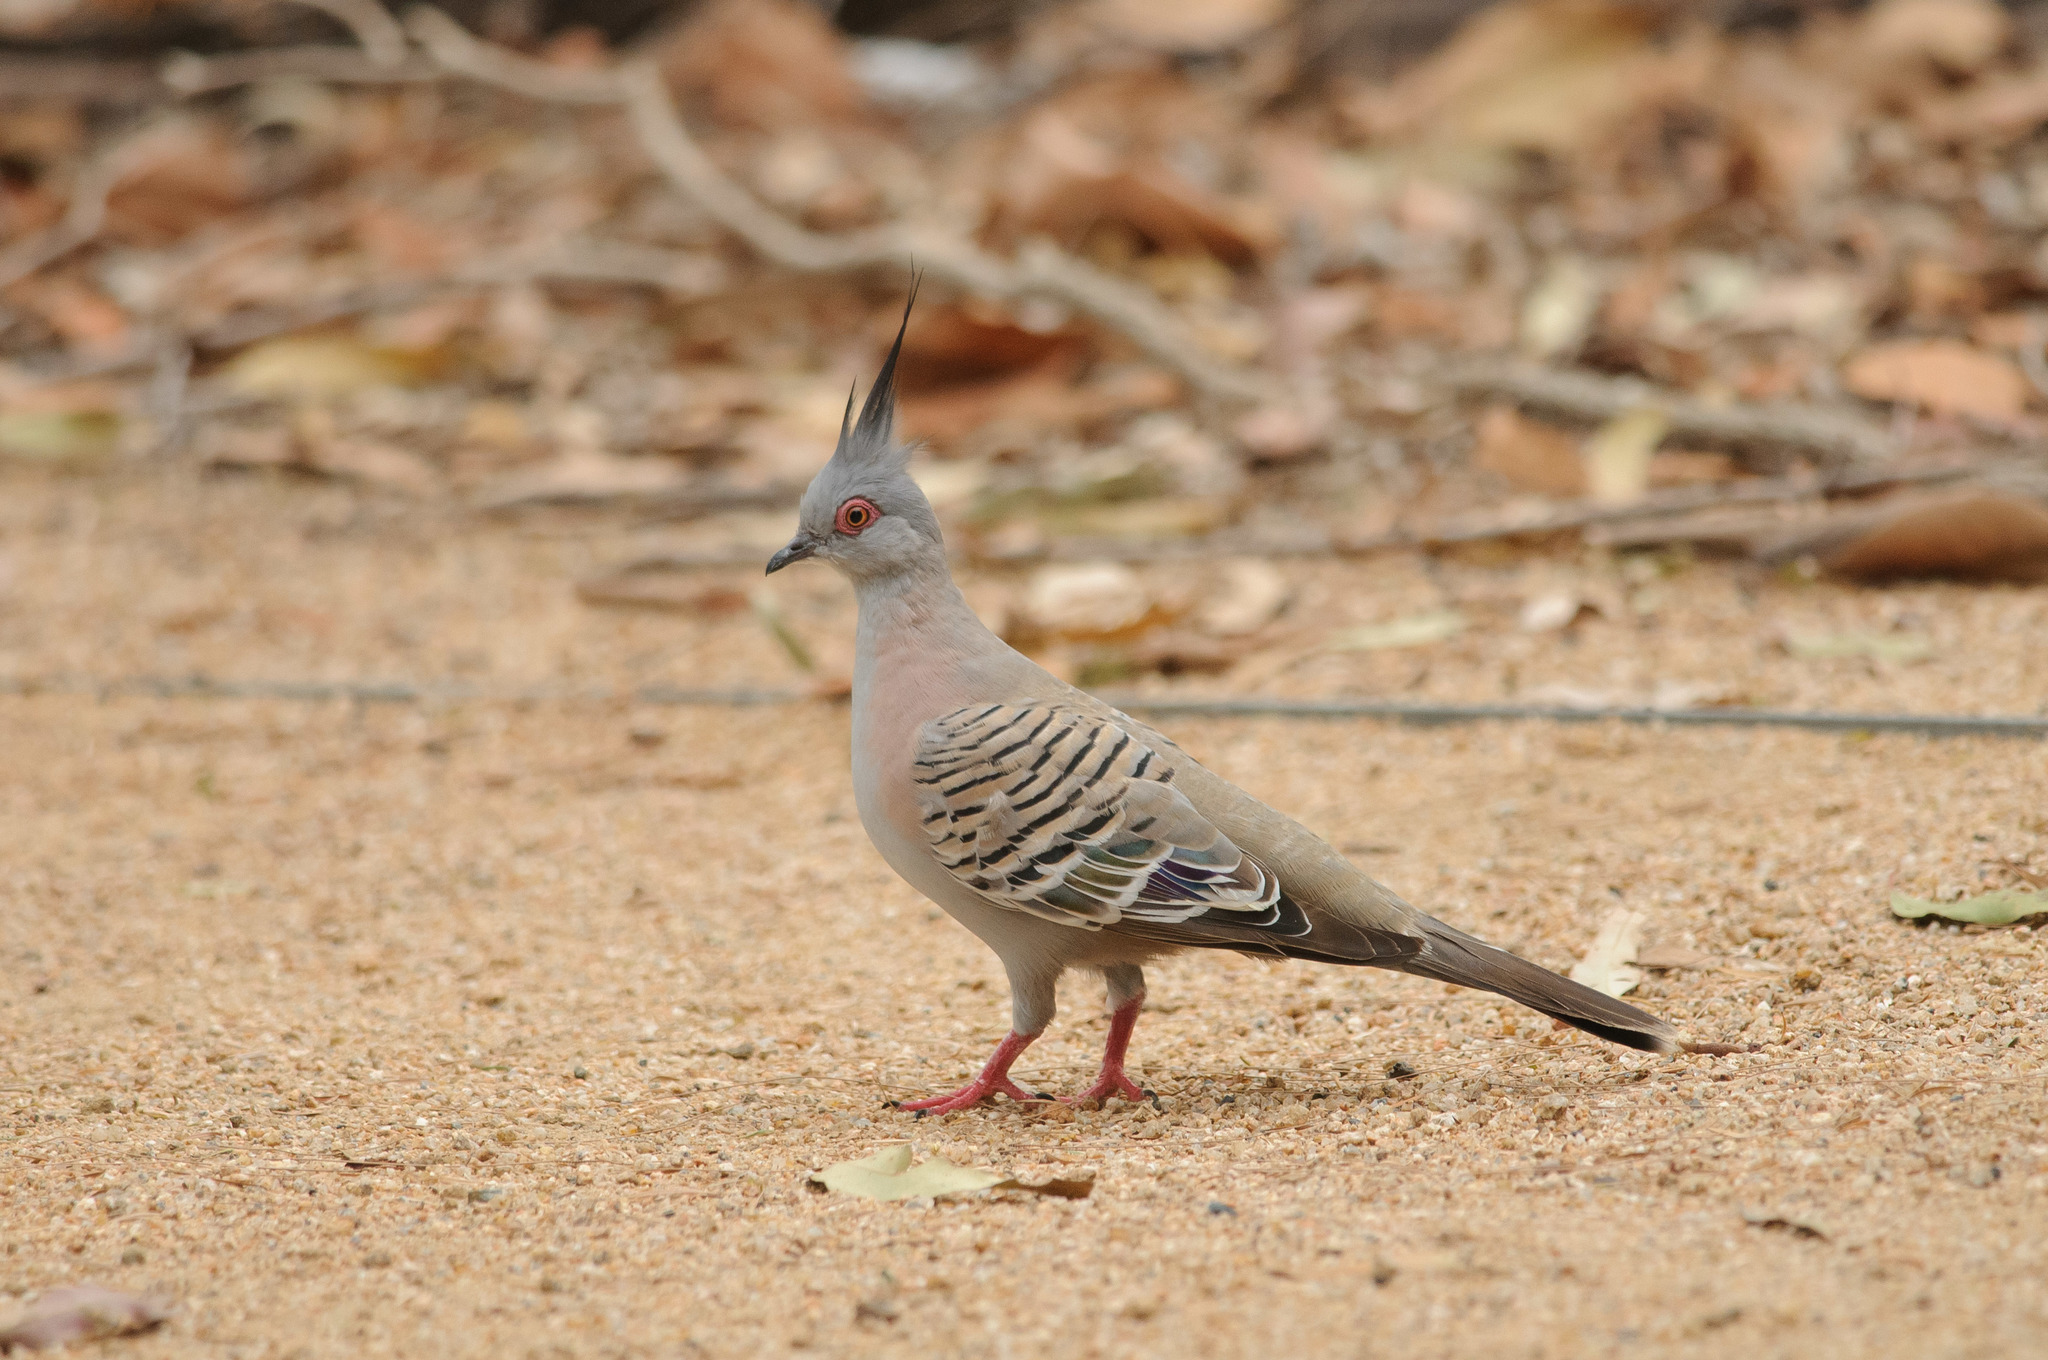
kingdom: Animalia
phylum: Chordata
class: Aves
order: Columbiformes
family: Columbidae
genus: Ocyphaps
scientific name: Ocyphaps lophotes
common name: Crested pigeon
